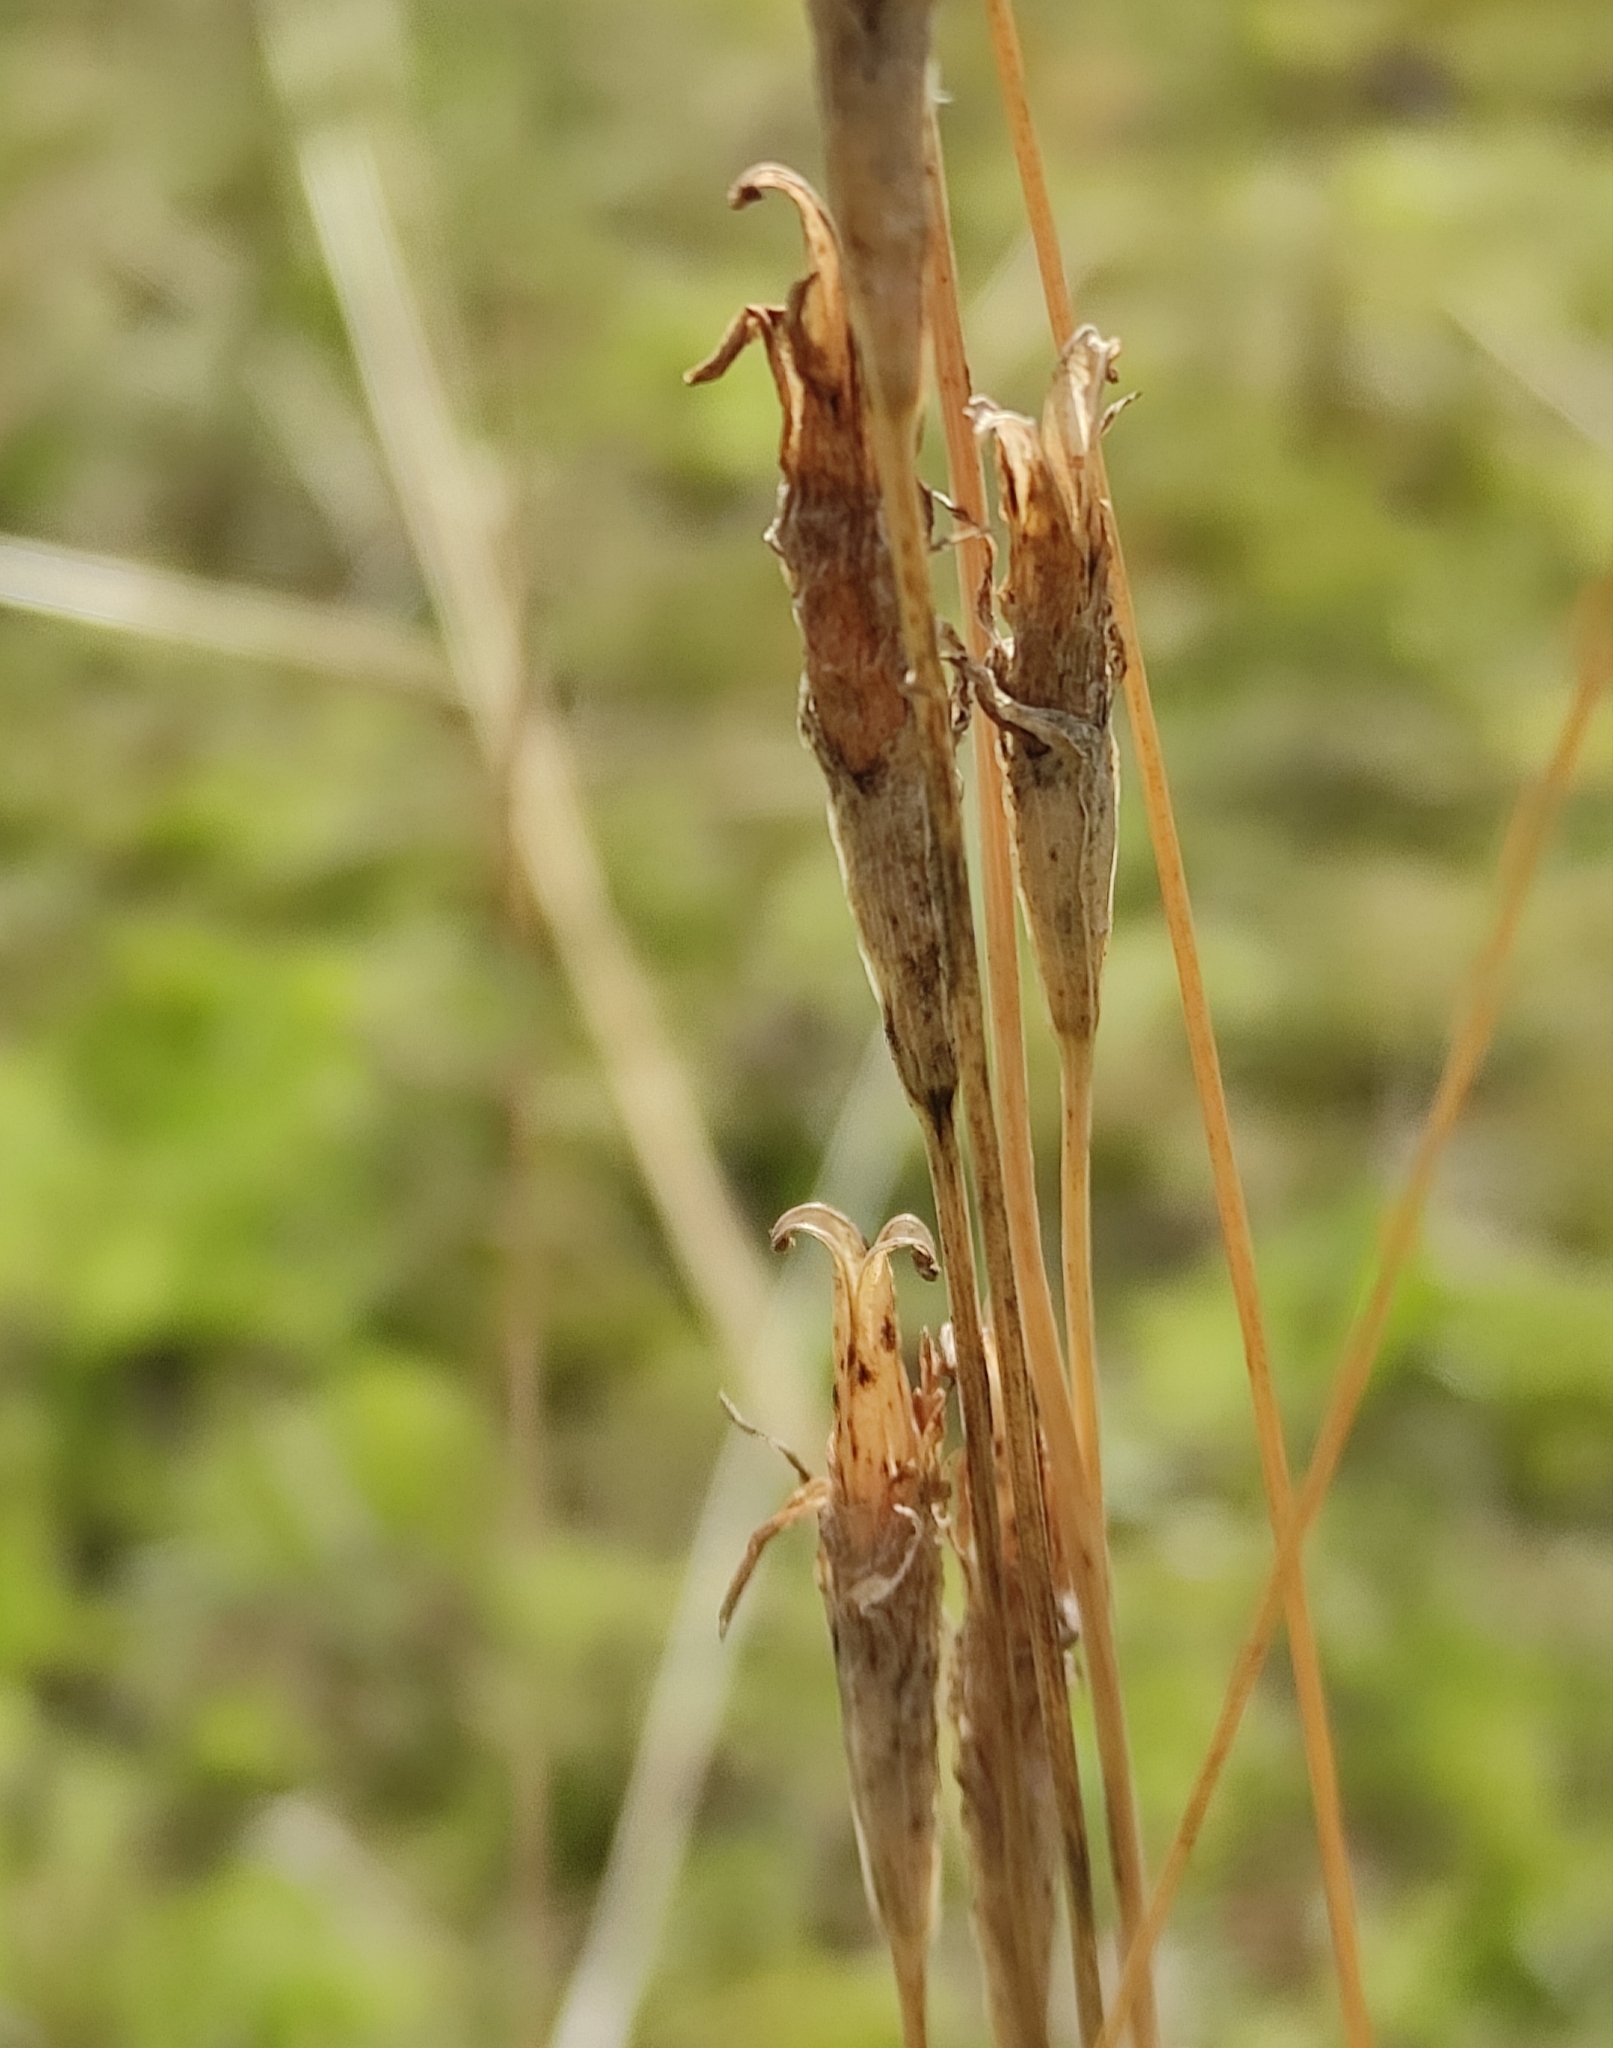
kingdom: Plantae
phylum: Tracheophyta
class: Magnoliopsida
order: Gentianales
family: Gentianaceae
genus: Gentianopsis
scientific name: Gentianopsis barbata
